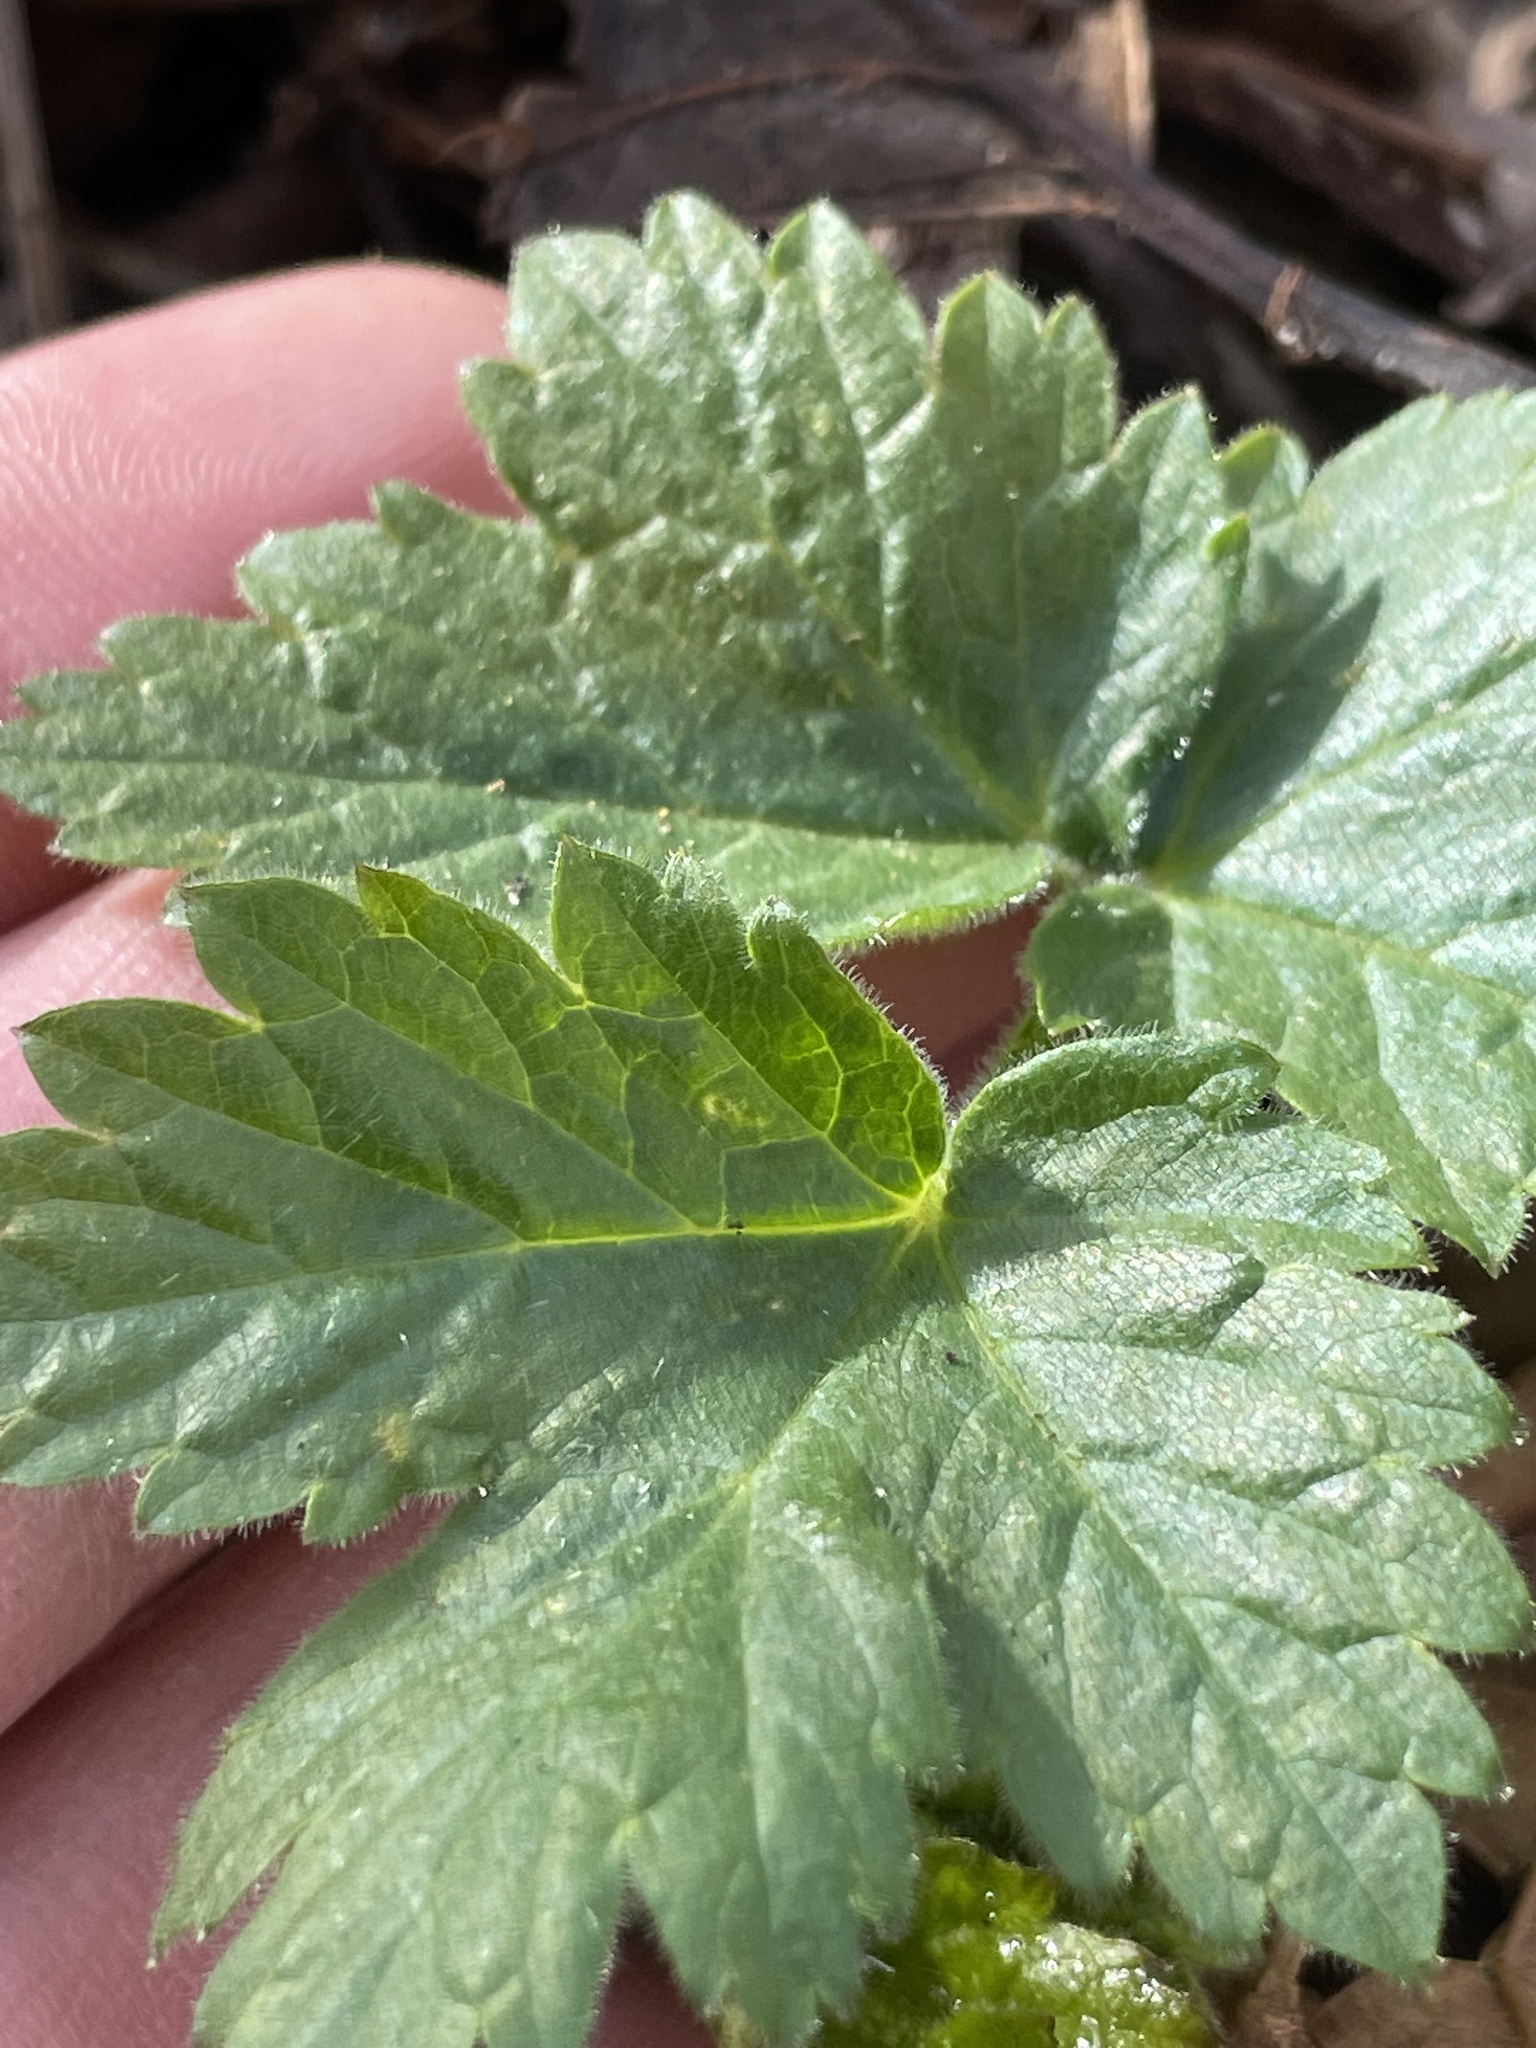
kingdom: Plantae
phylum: Tracheophyta
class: Magnoliopsida
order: Apiales
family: Apiaceae
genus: Heracleum
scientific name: Heracleum maximum
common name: American cow parsnip
